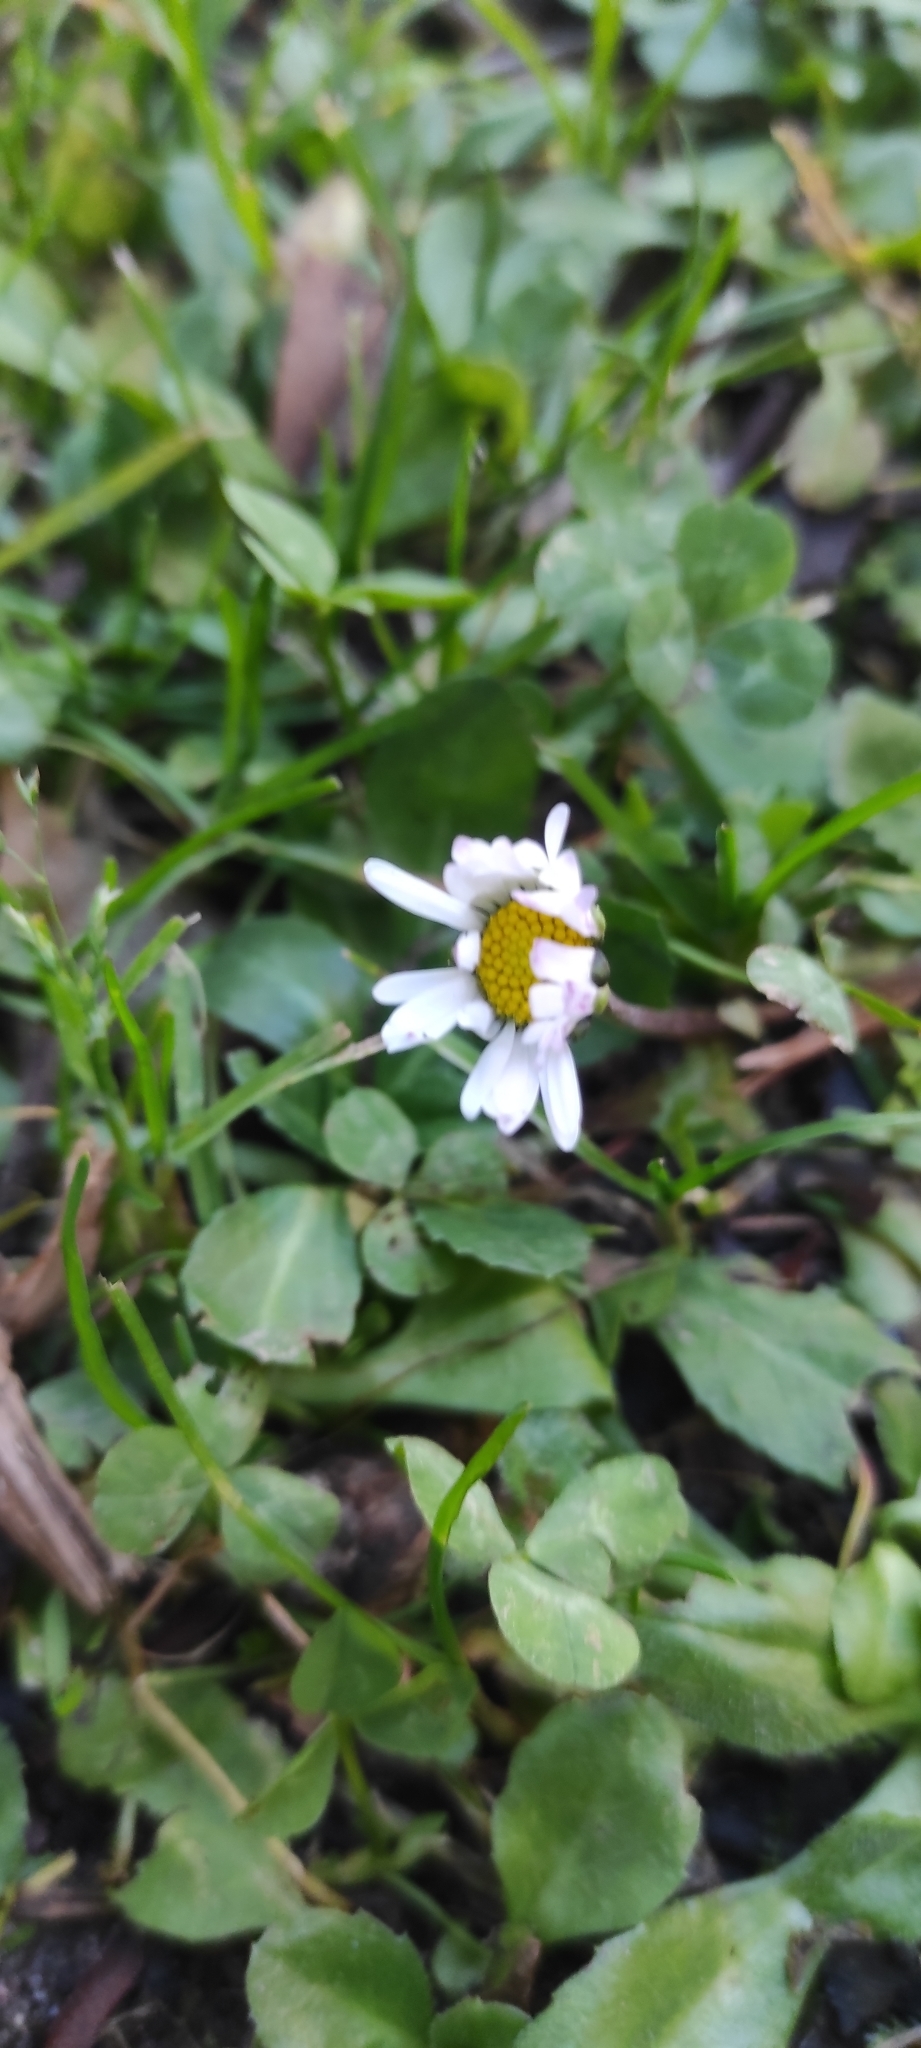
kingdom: Plantae
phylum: Tracheophyta
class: Magnoliopsida
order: Asterales
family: Asteraceae
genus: Bellis
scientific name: Bellis perennis
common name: Lawndaisy
